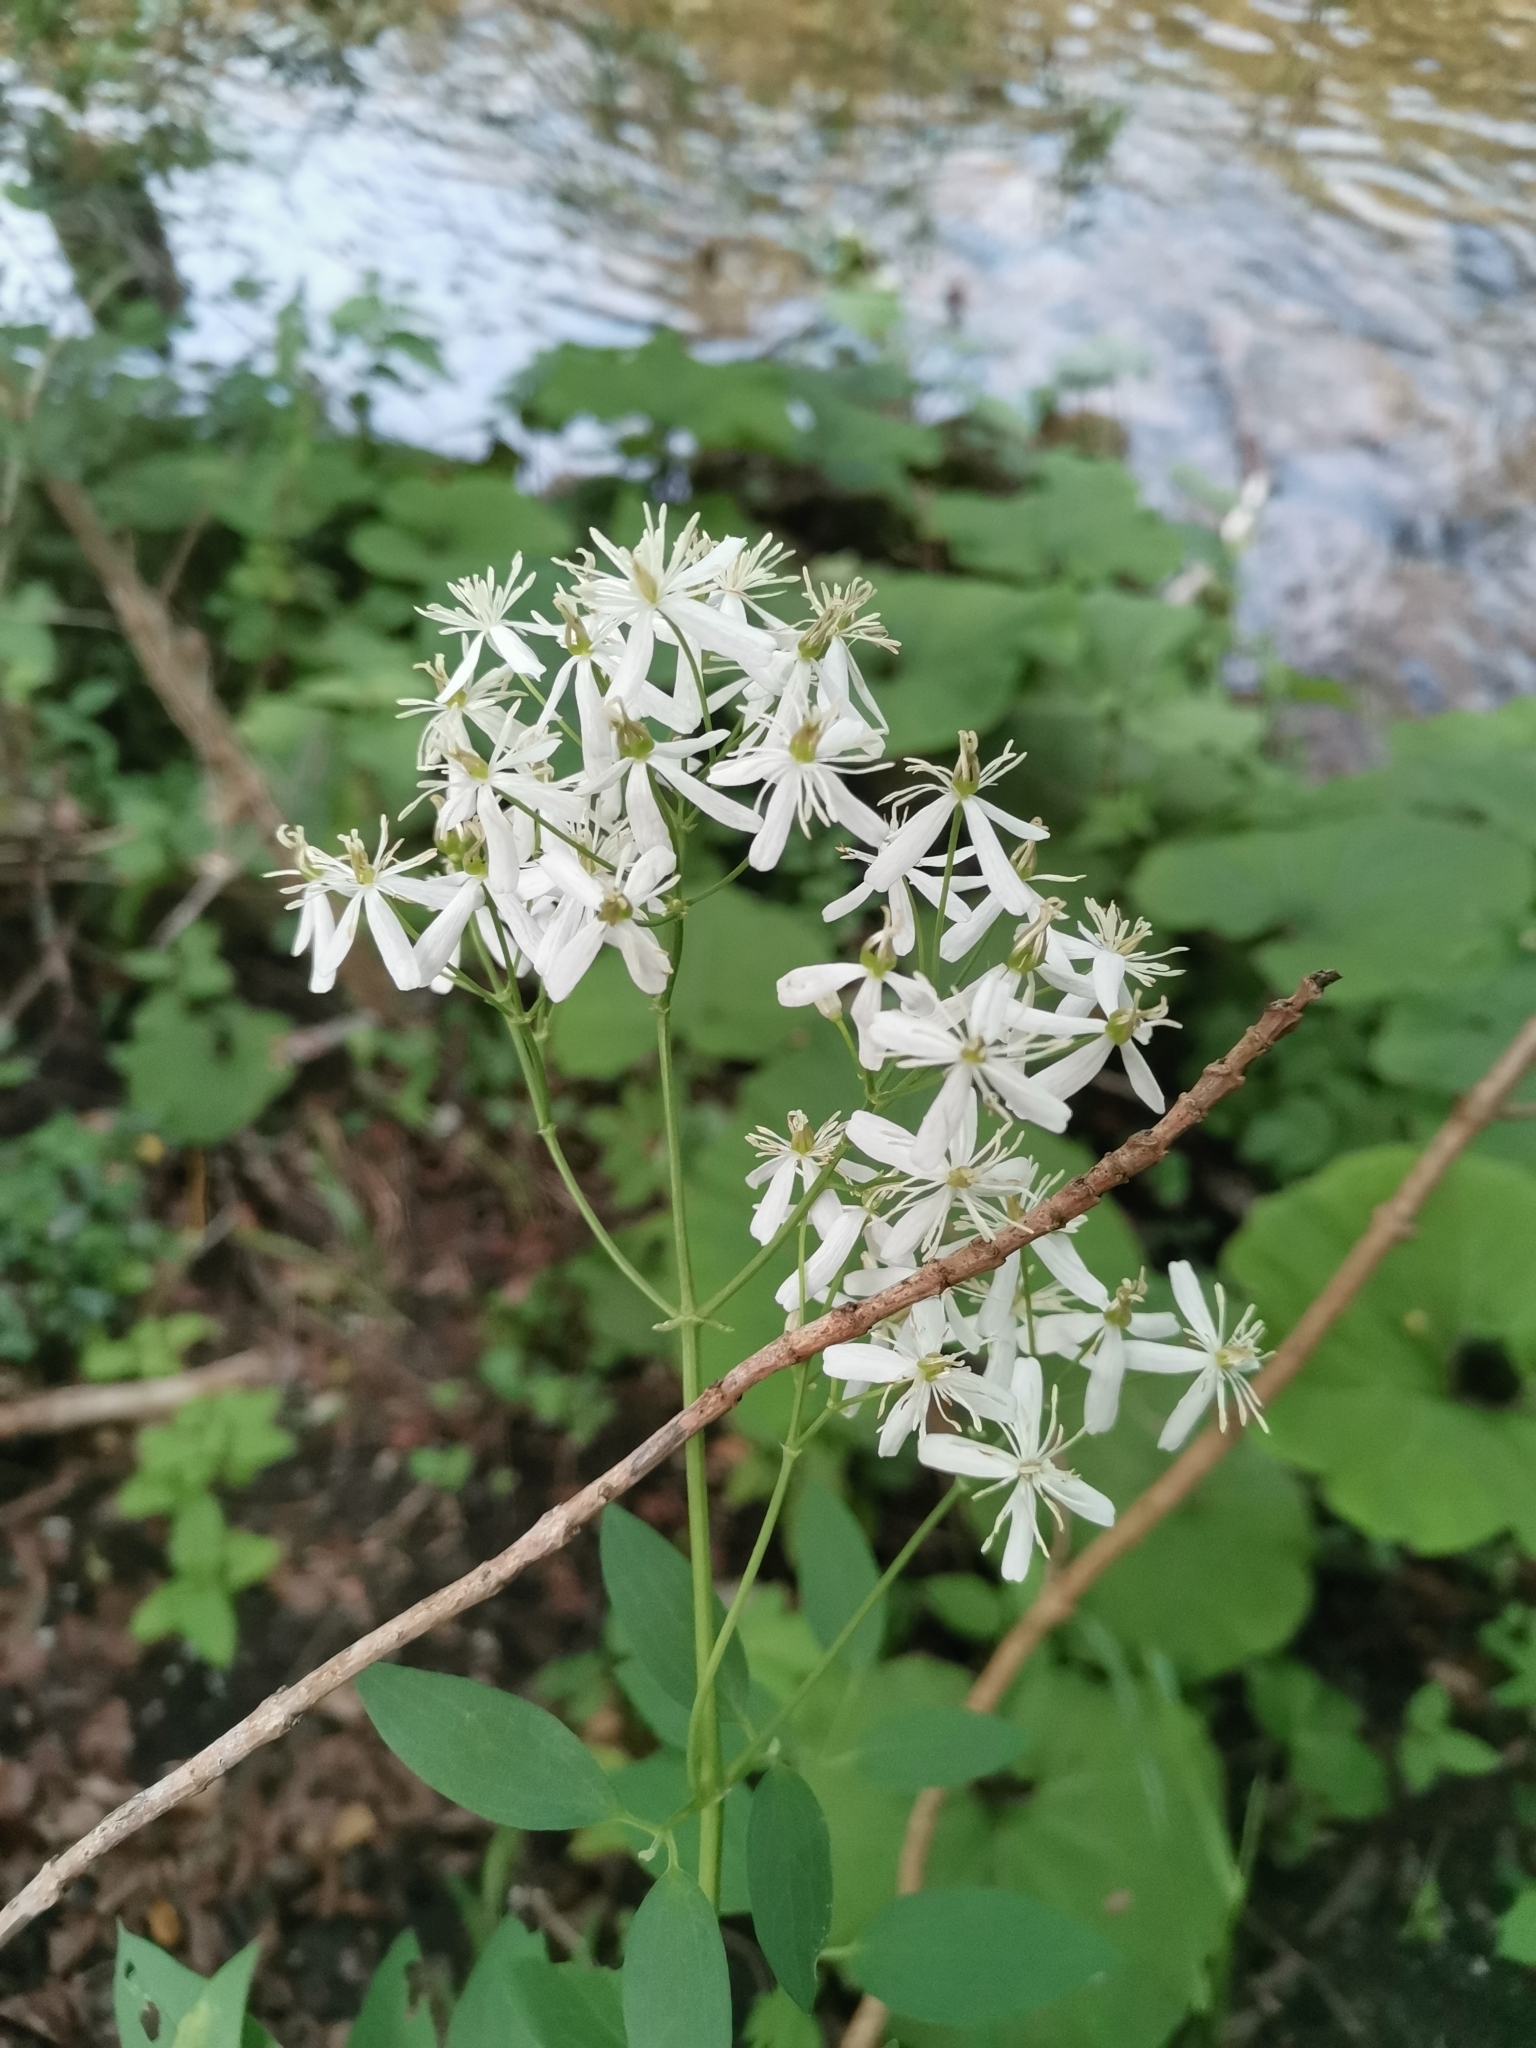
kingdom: Plantae
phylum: Tracheophyta
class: Magnoliopsida
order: Ranunculales
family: Ranunculaceae
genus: Clematis
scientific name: Clematis recta
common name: Ground clematis
